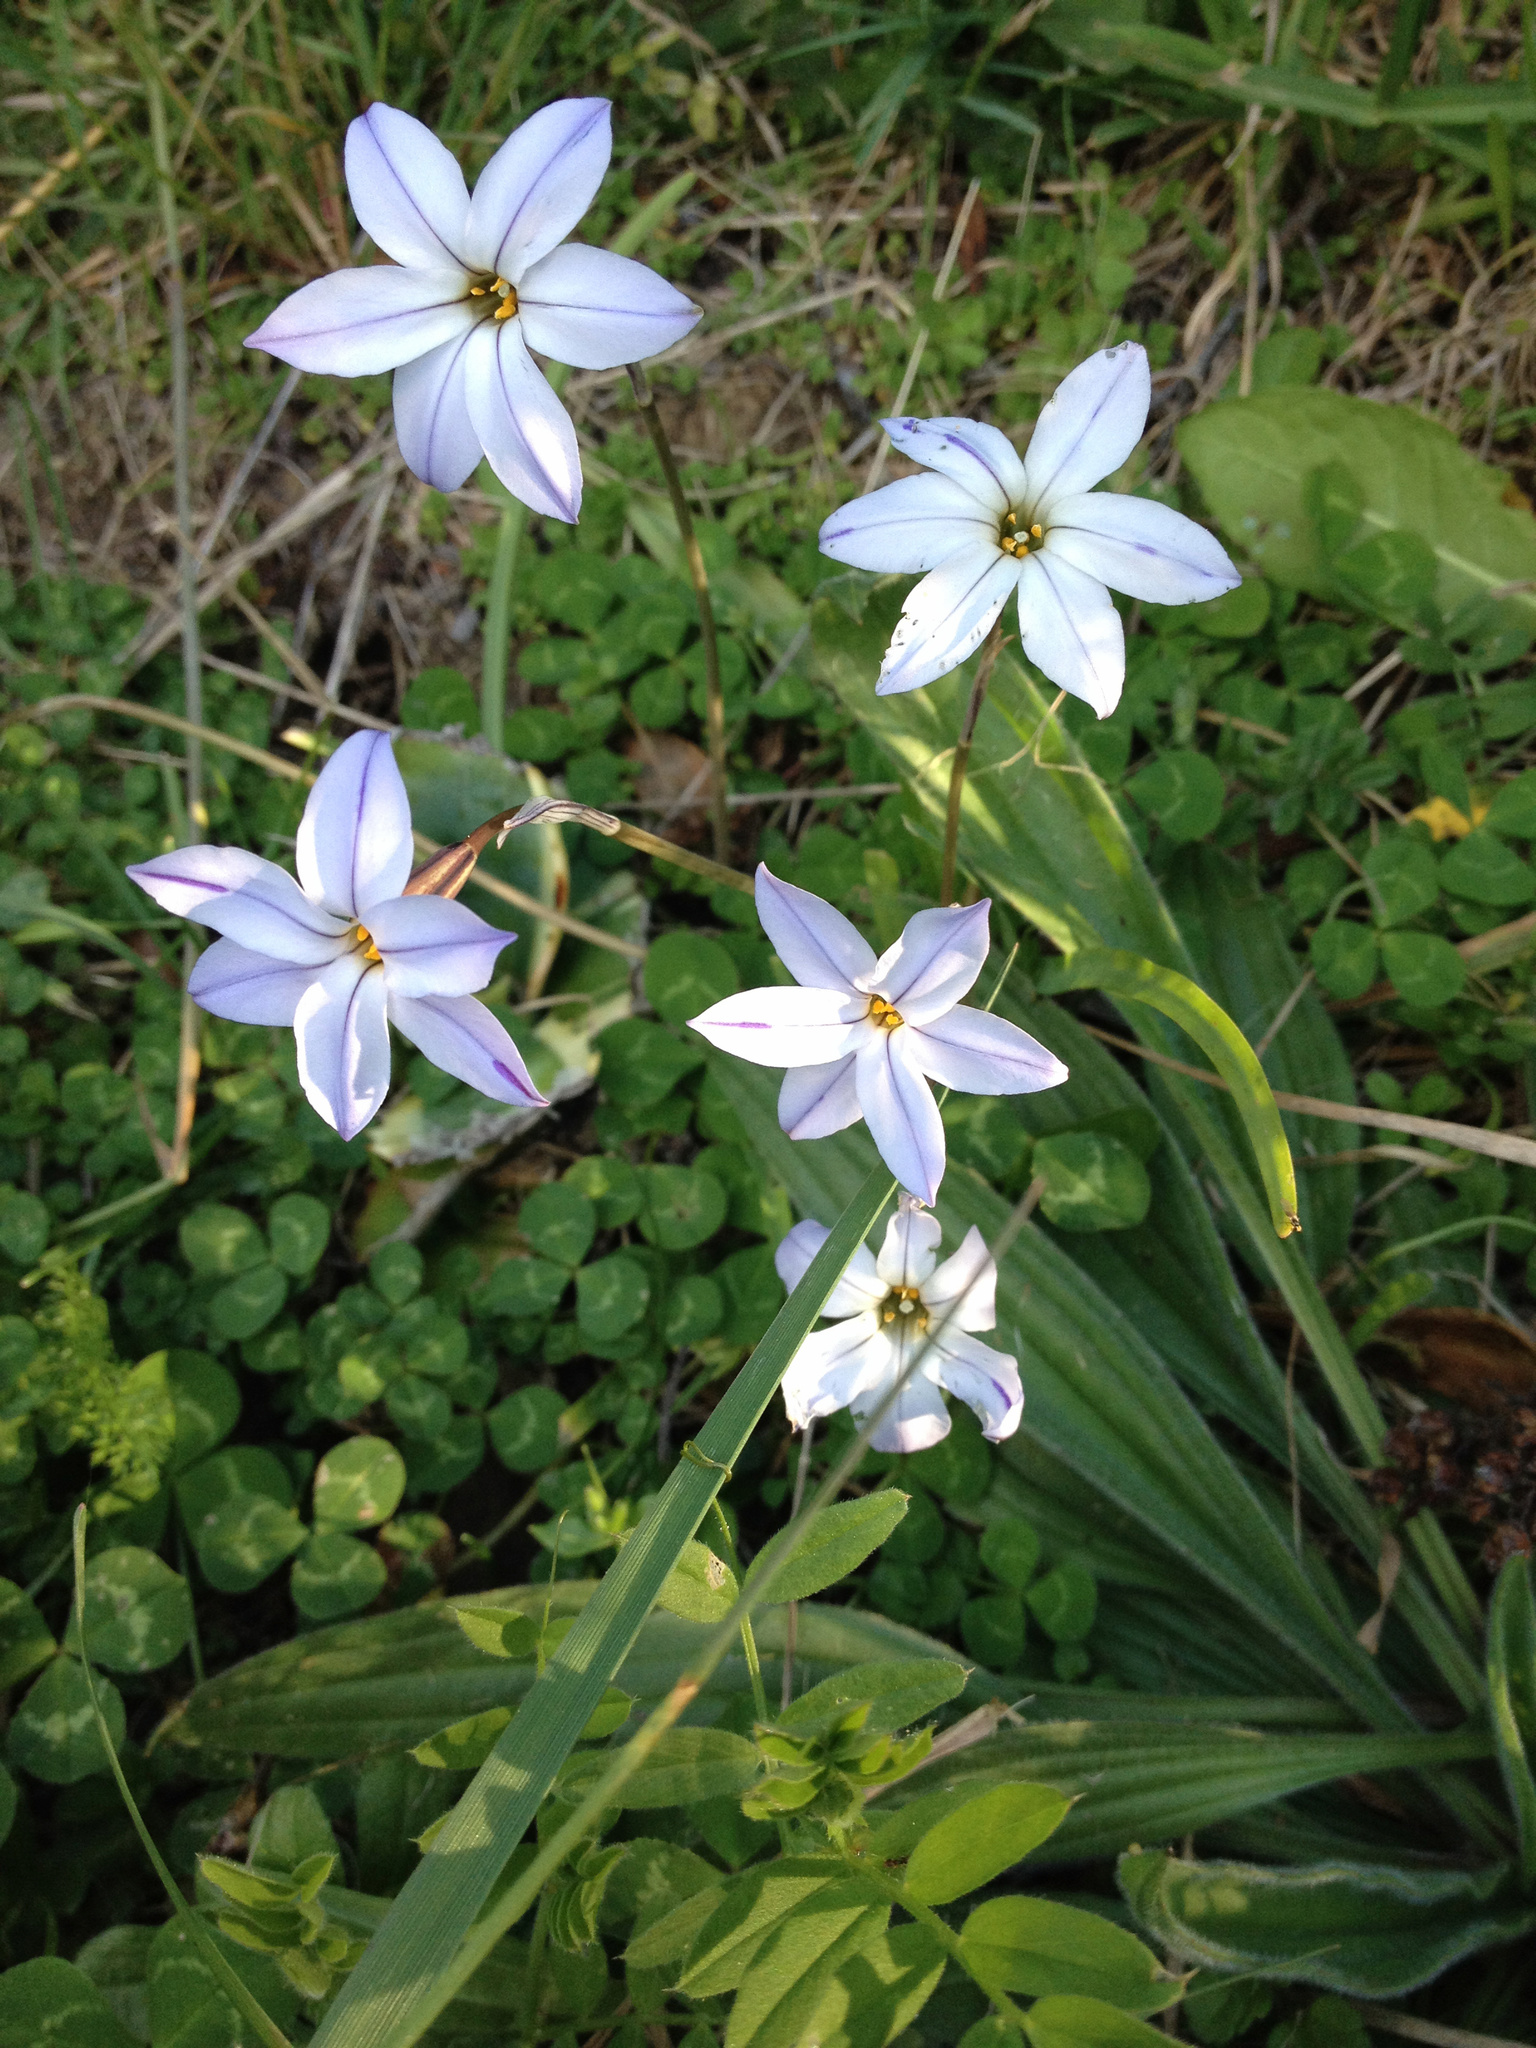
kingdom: Plantae
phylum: Tracheophyta
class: Liliopsida
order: Asparagales
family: Amaryllidaceae
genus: Ipheion
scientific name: Ipheion uniflorum
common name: Spring starflower
